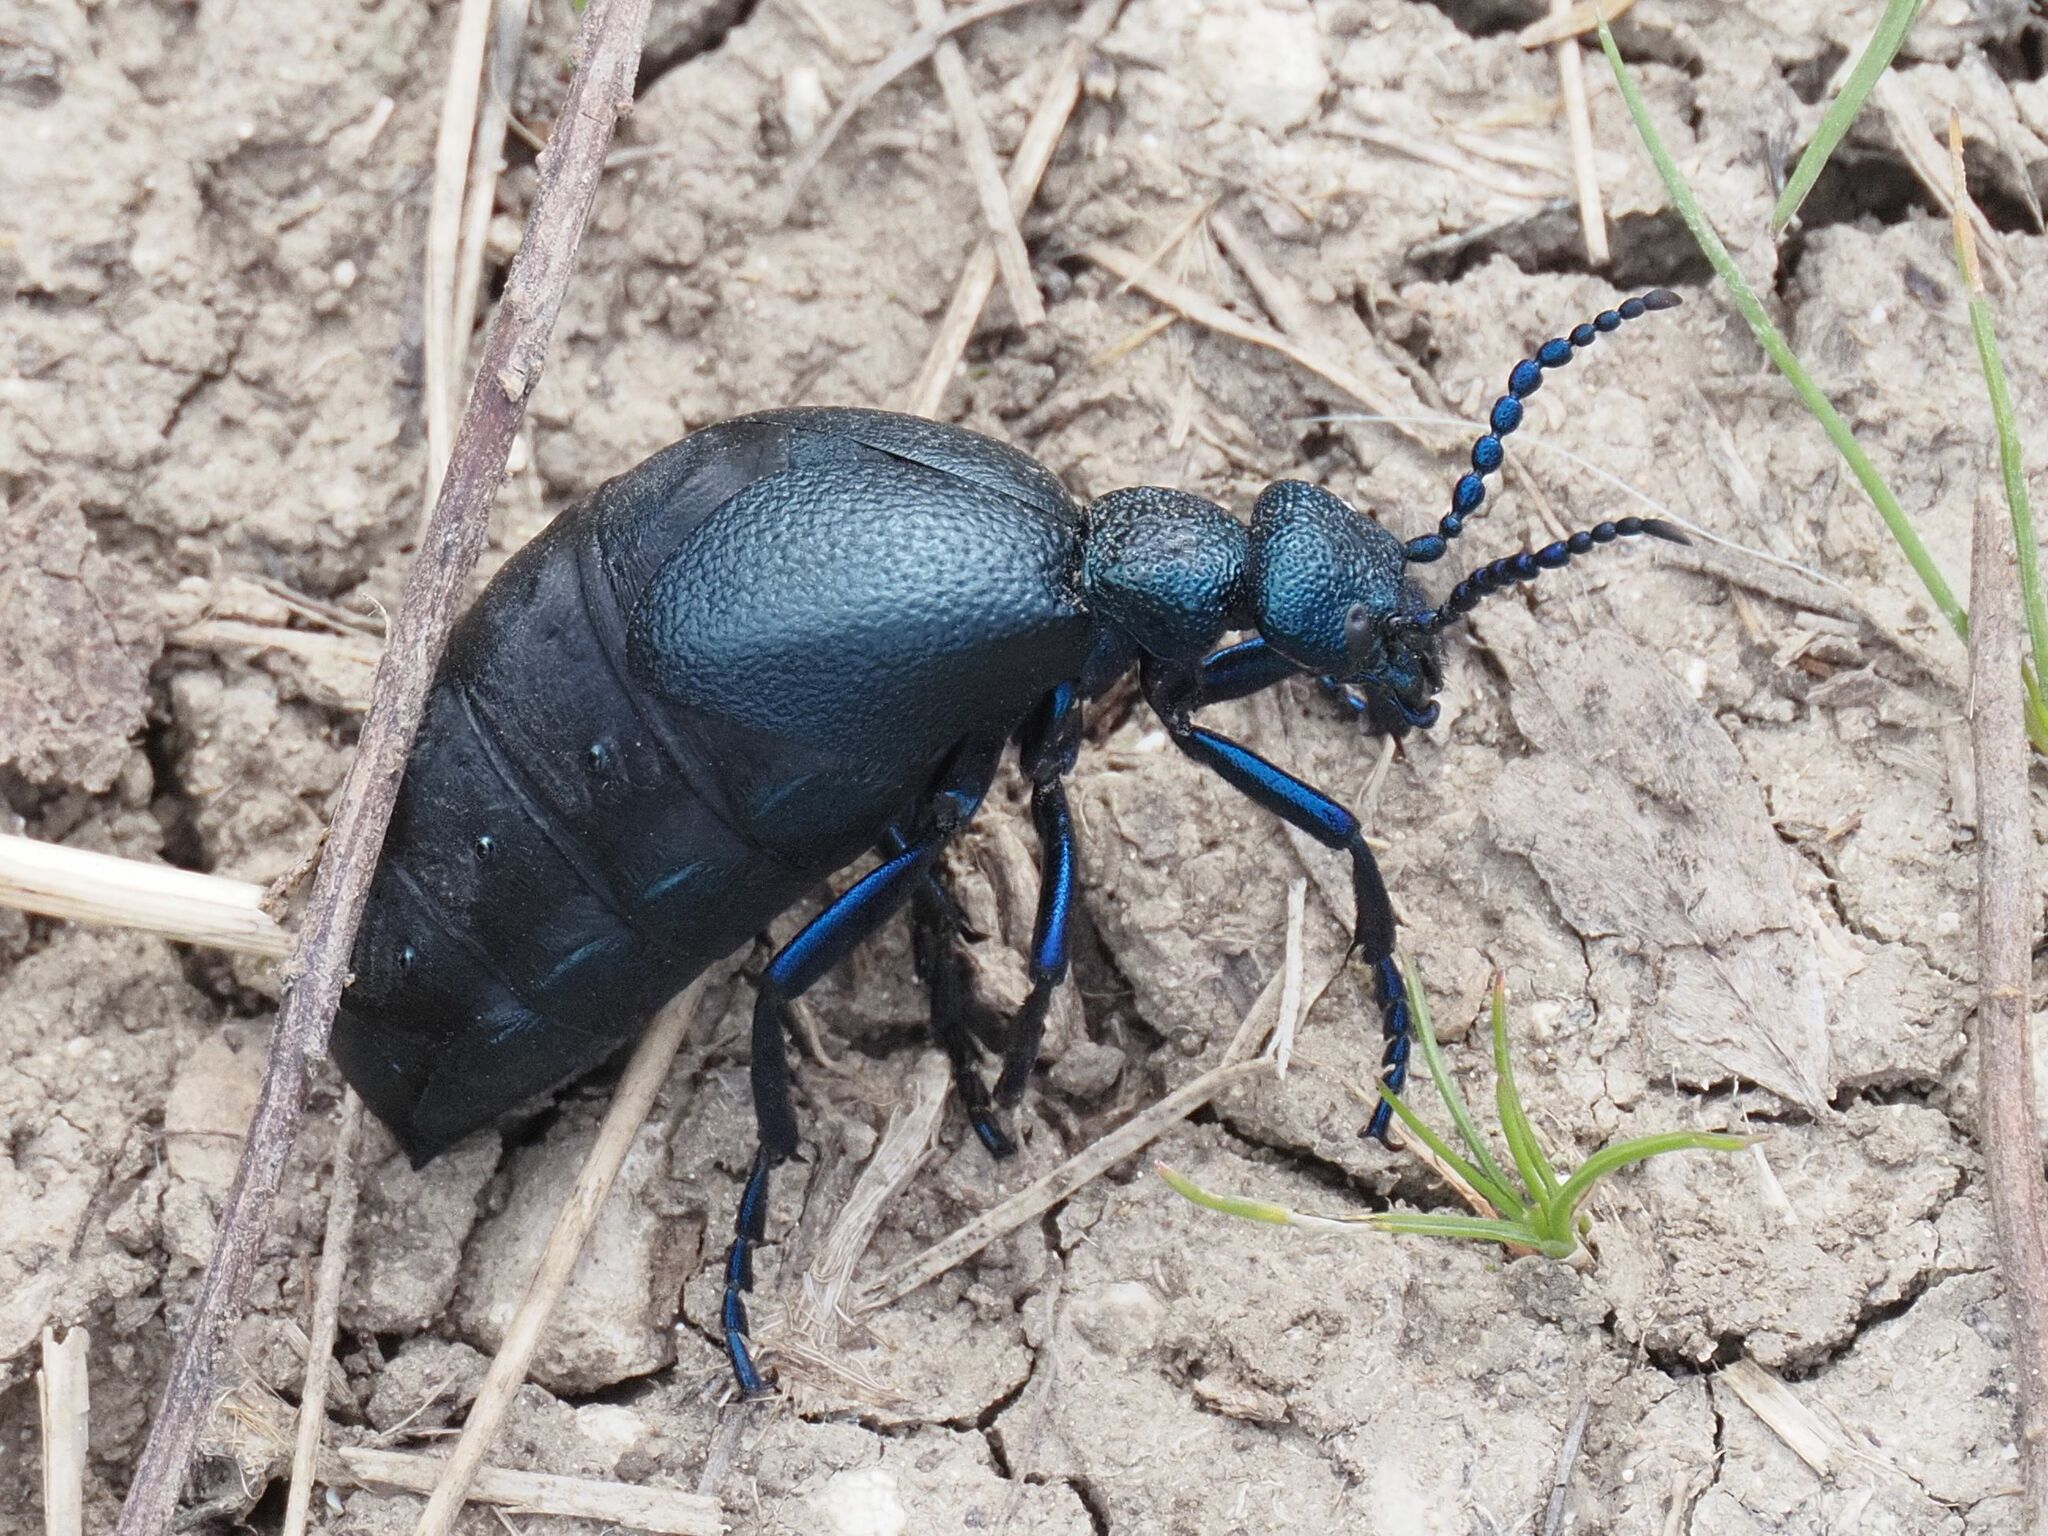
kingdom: Animalia
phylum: Arthropoda
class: Insecta
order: Coleoptera
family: Meloidae
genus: Meloe
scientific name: Meloe proscarabaeus
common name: Black oil-beetle
